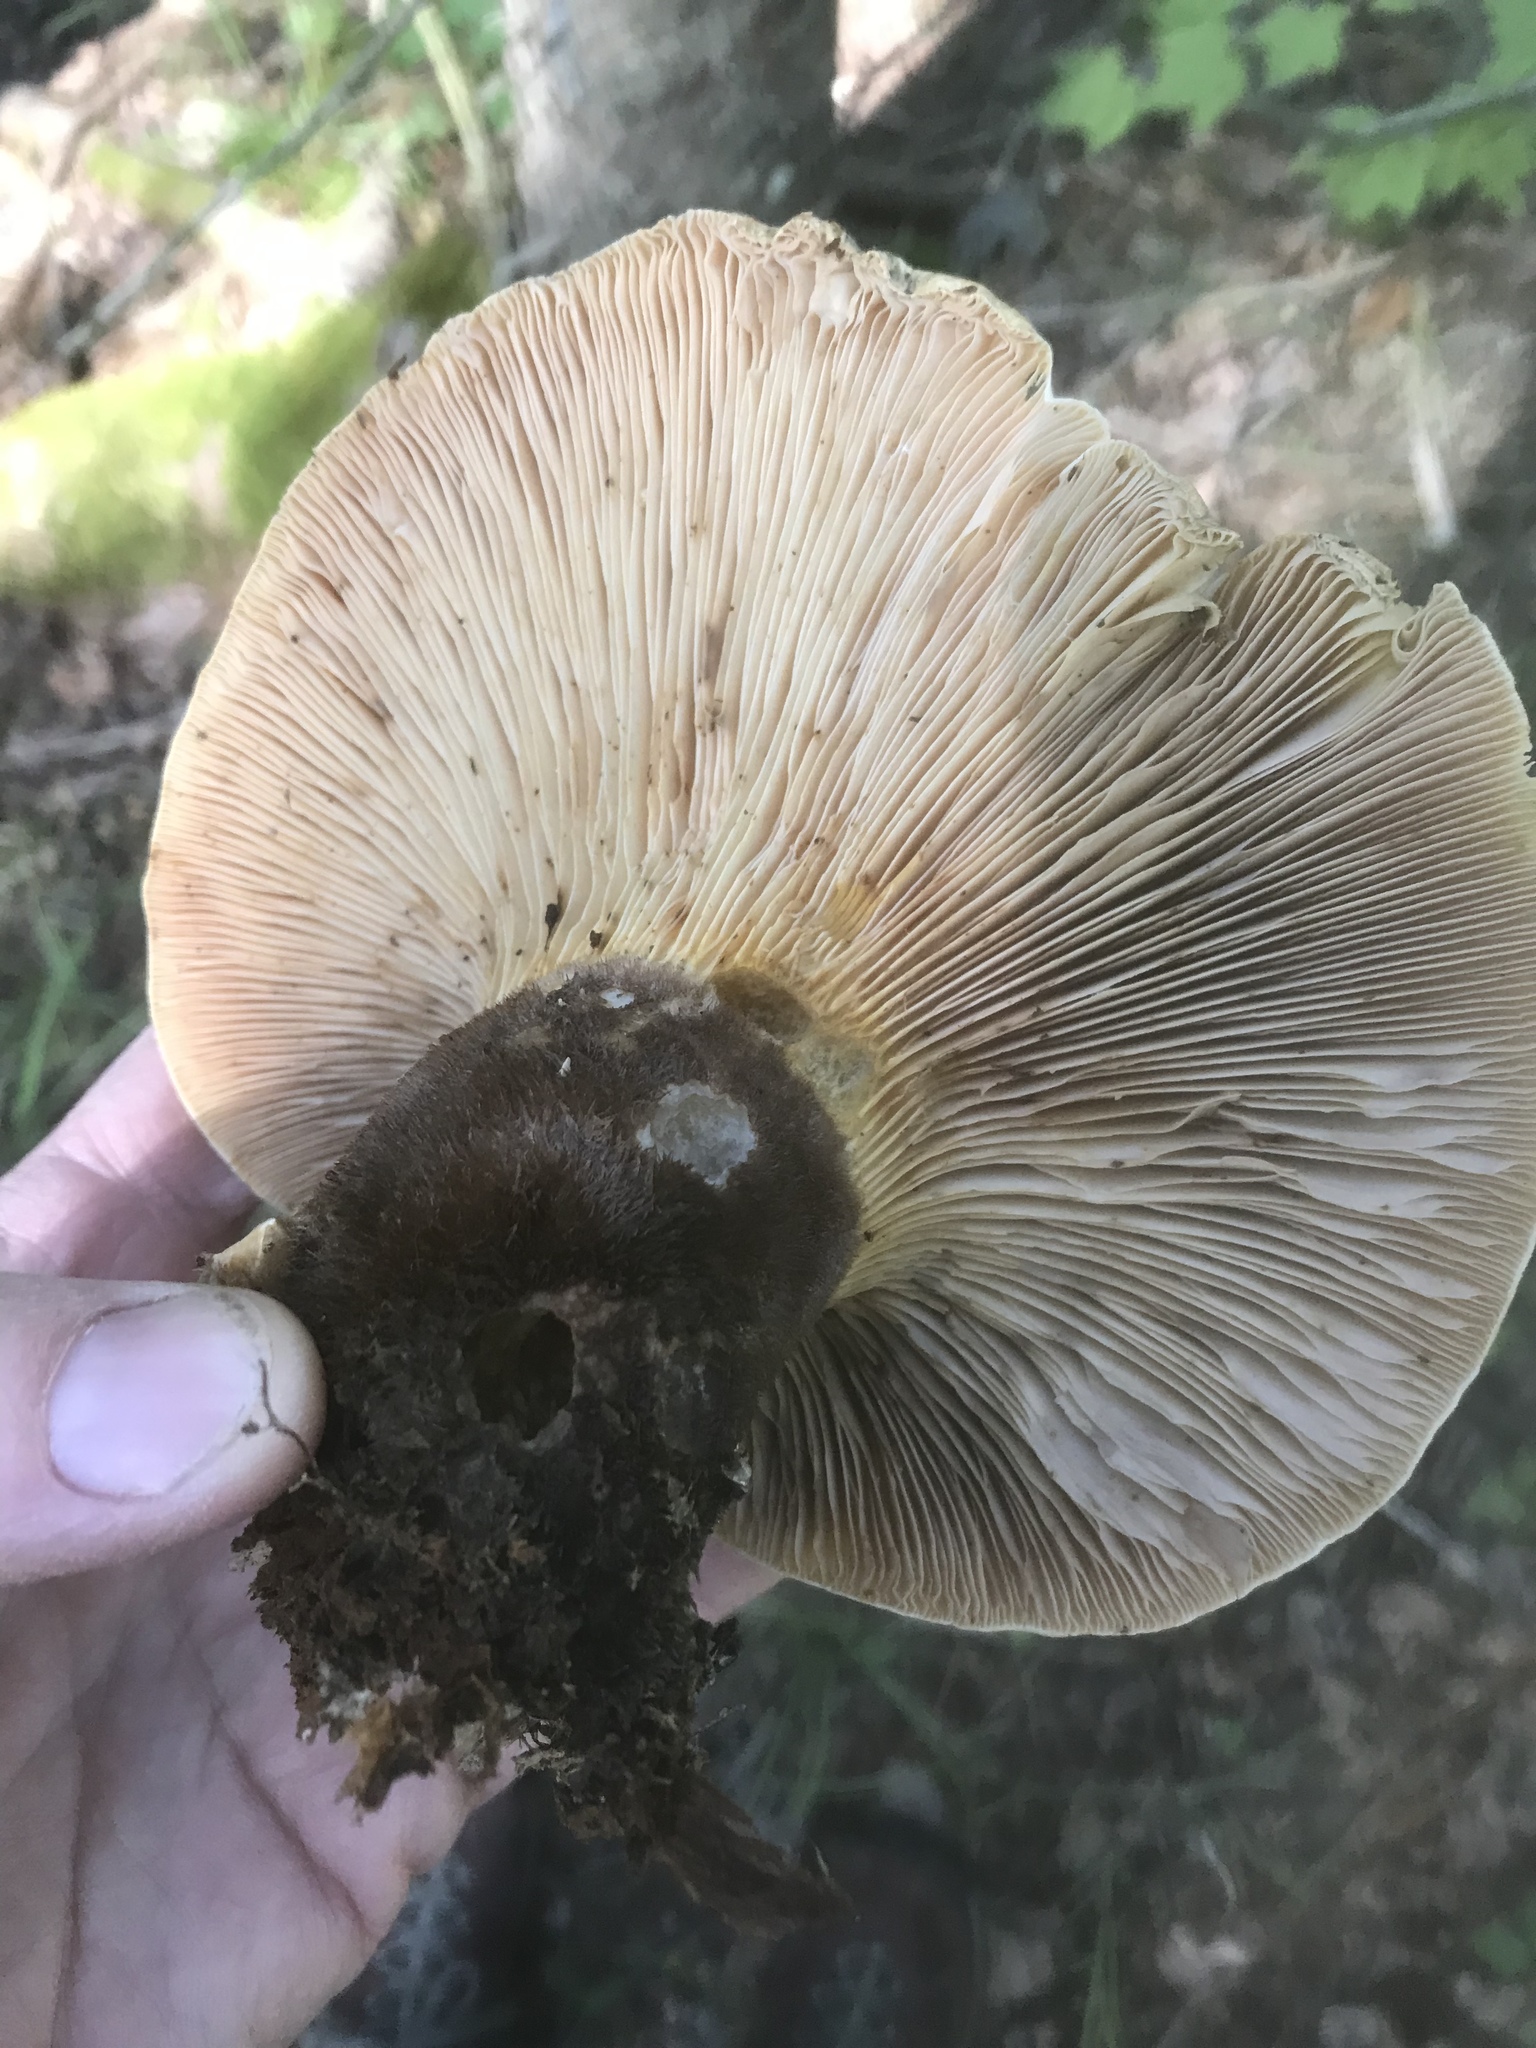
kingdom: Fungi
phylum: Basidiomycota
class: Agaricomycetes
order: Boletales
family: Tapinellaceae
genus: Tapinella
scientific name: Tapinella atrotomentosa
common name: Velvet rollrim
